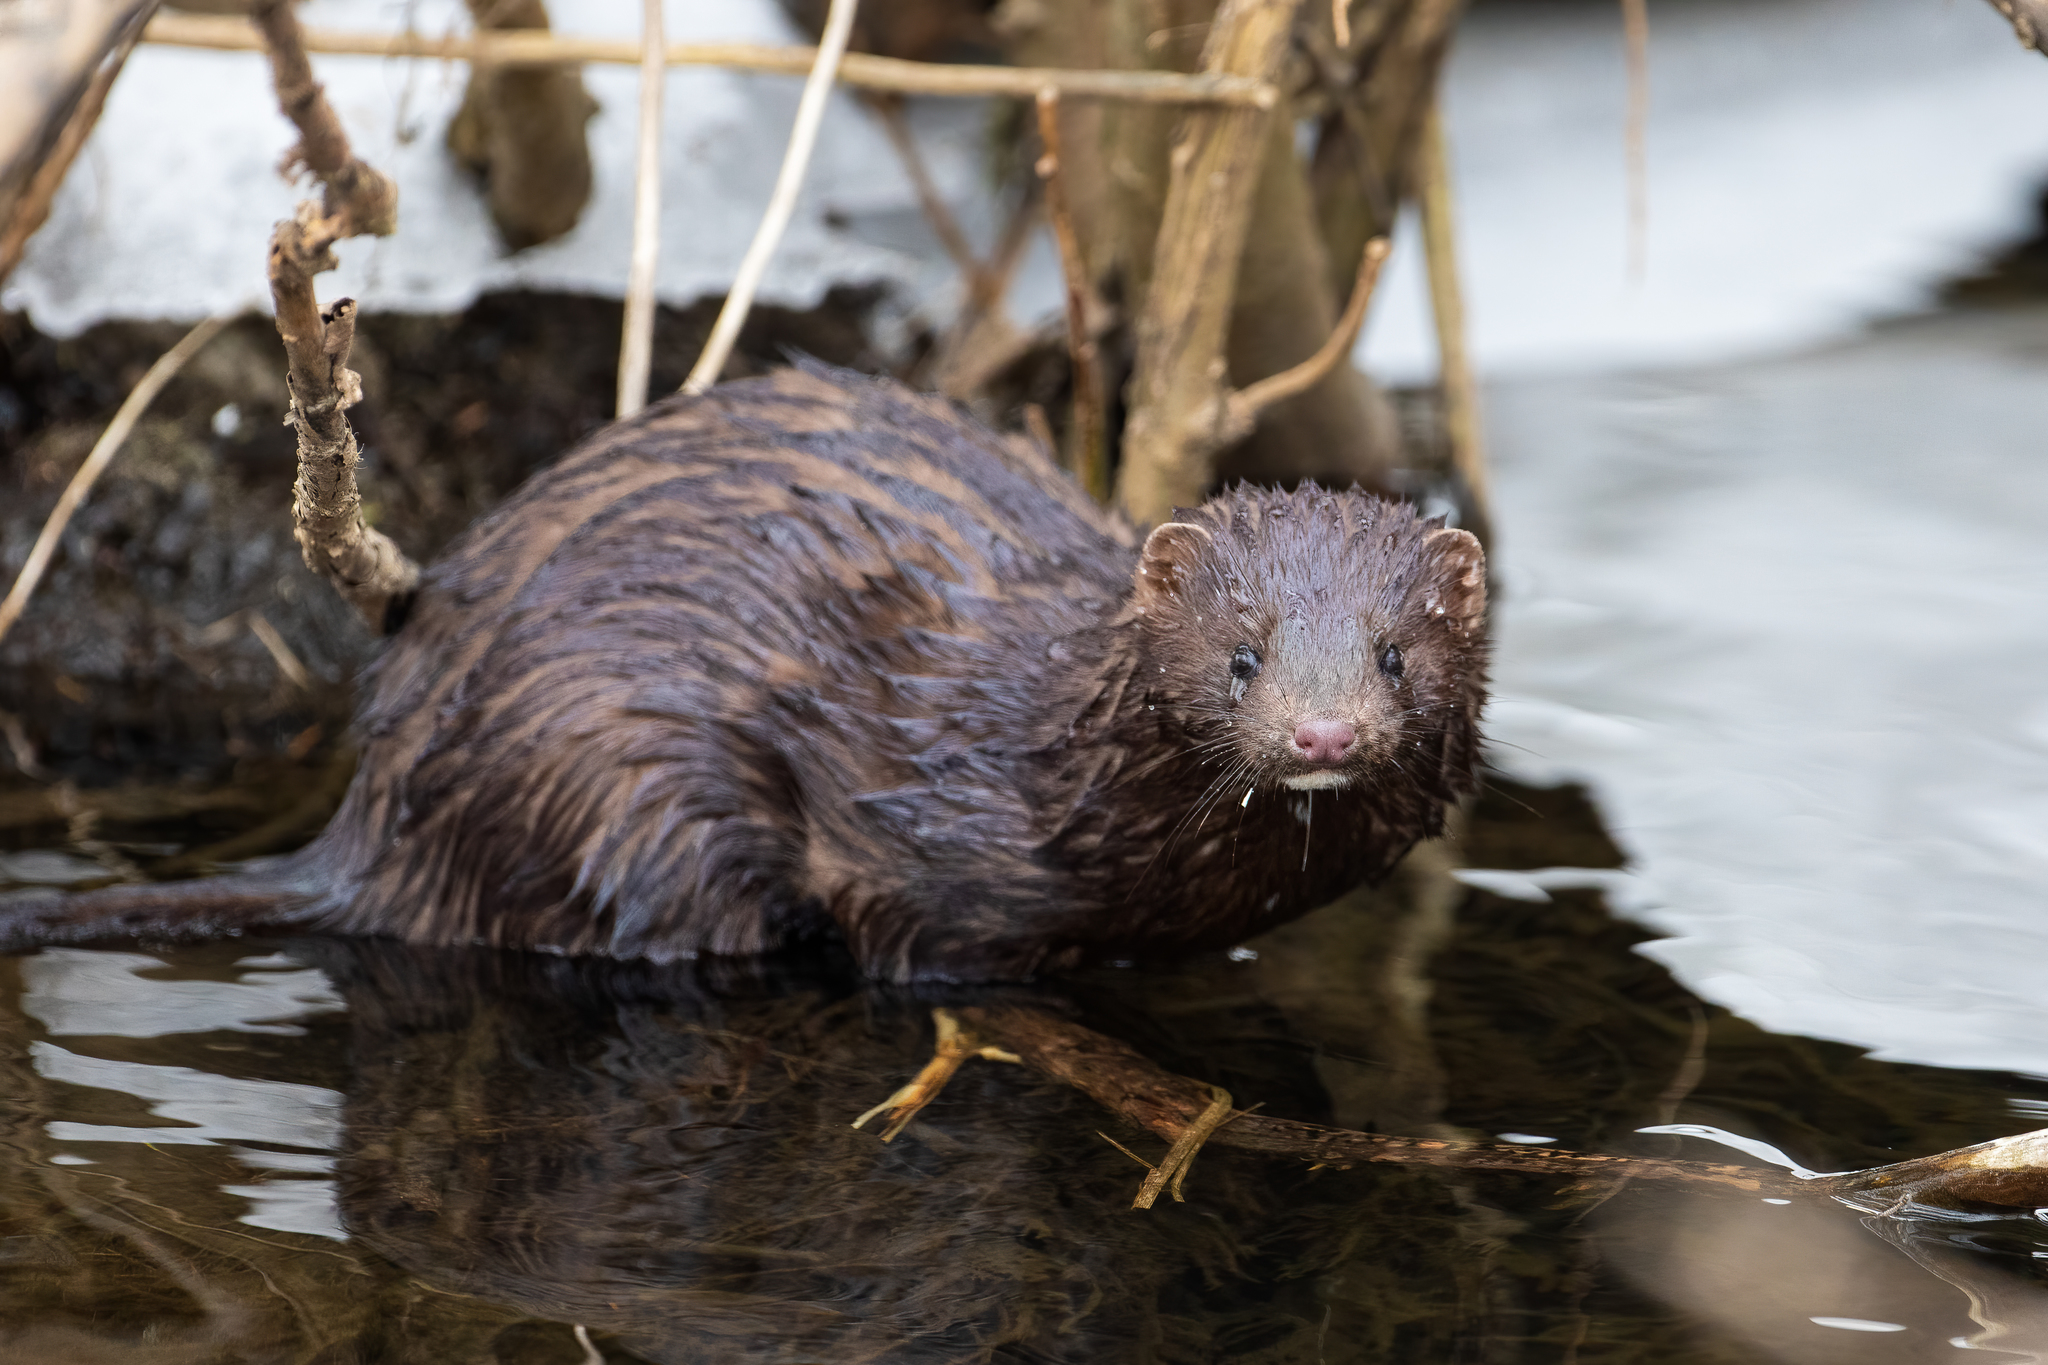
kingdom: Animalia
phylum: Chordata
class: Mammalia
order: Carnivora
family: Mustelidae
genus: Mustela
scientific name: Mustela
